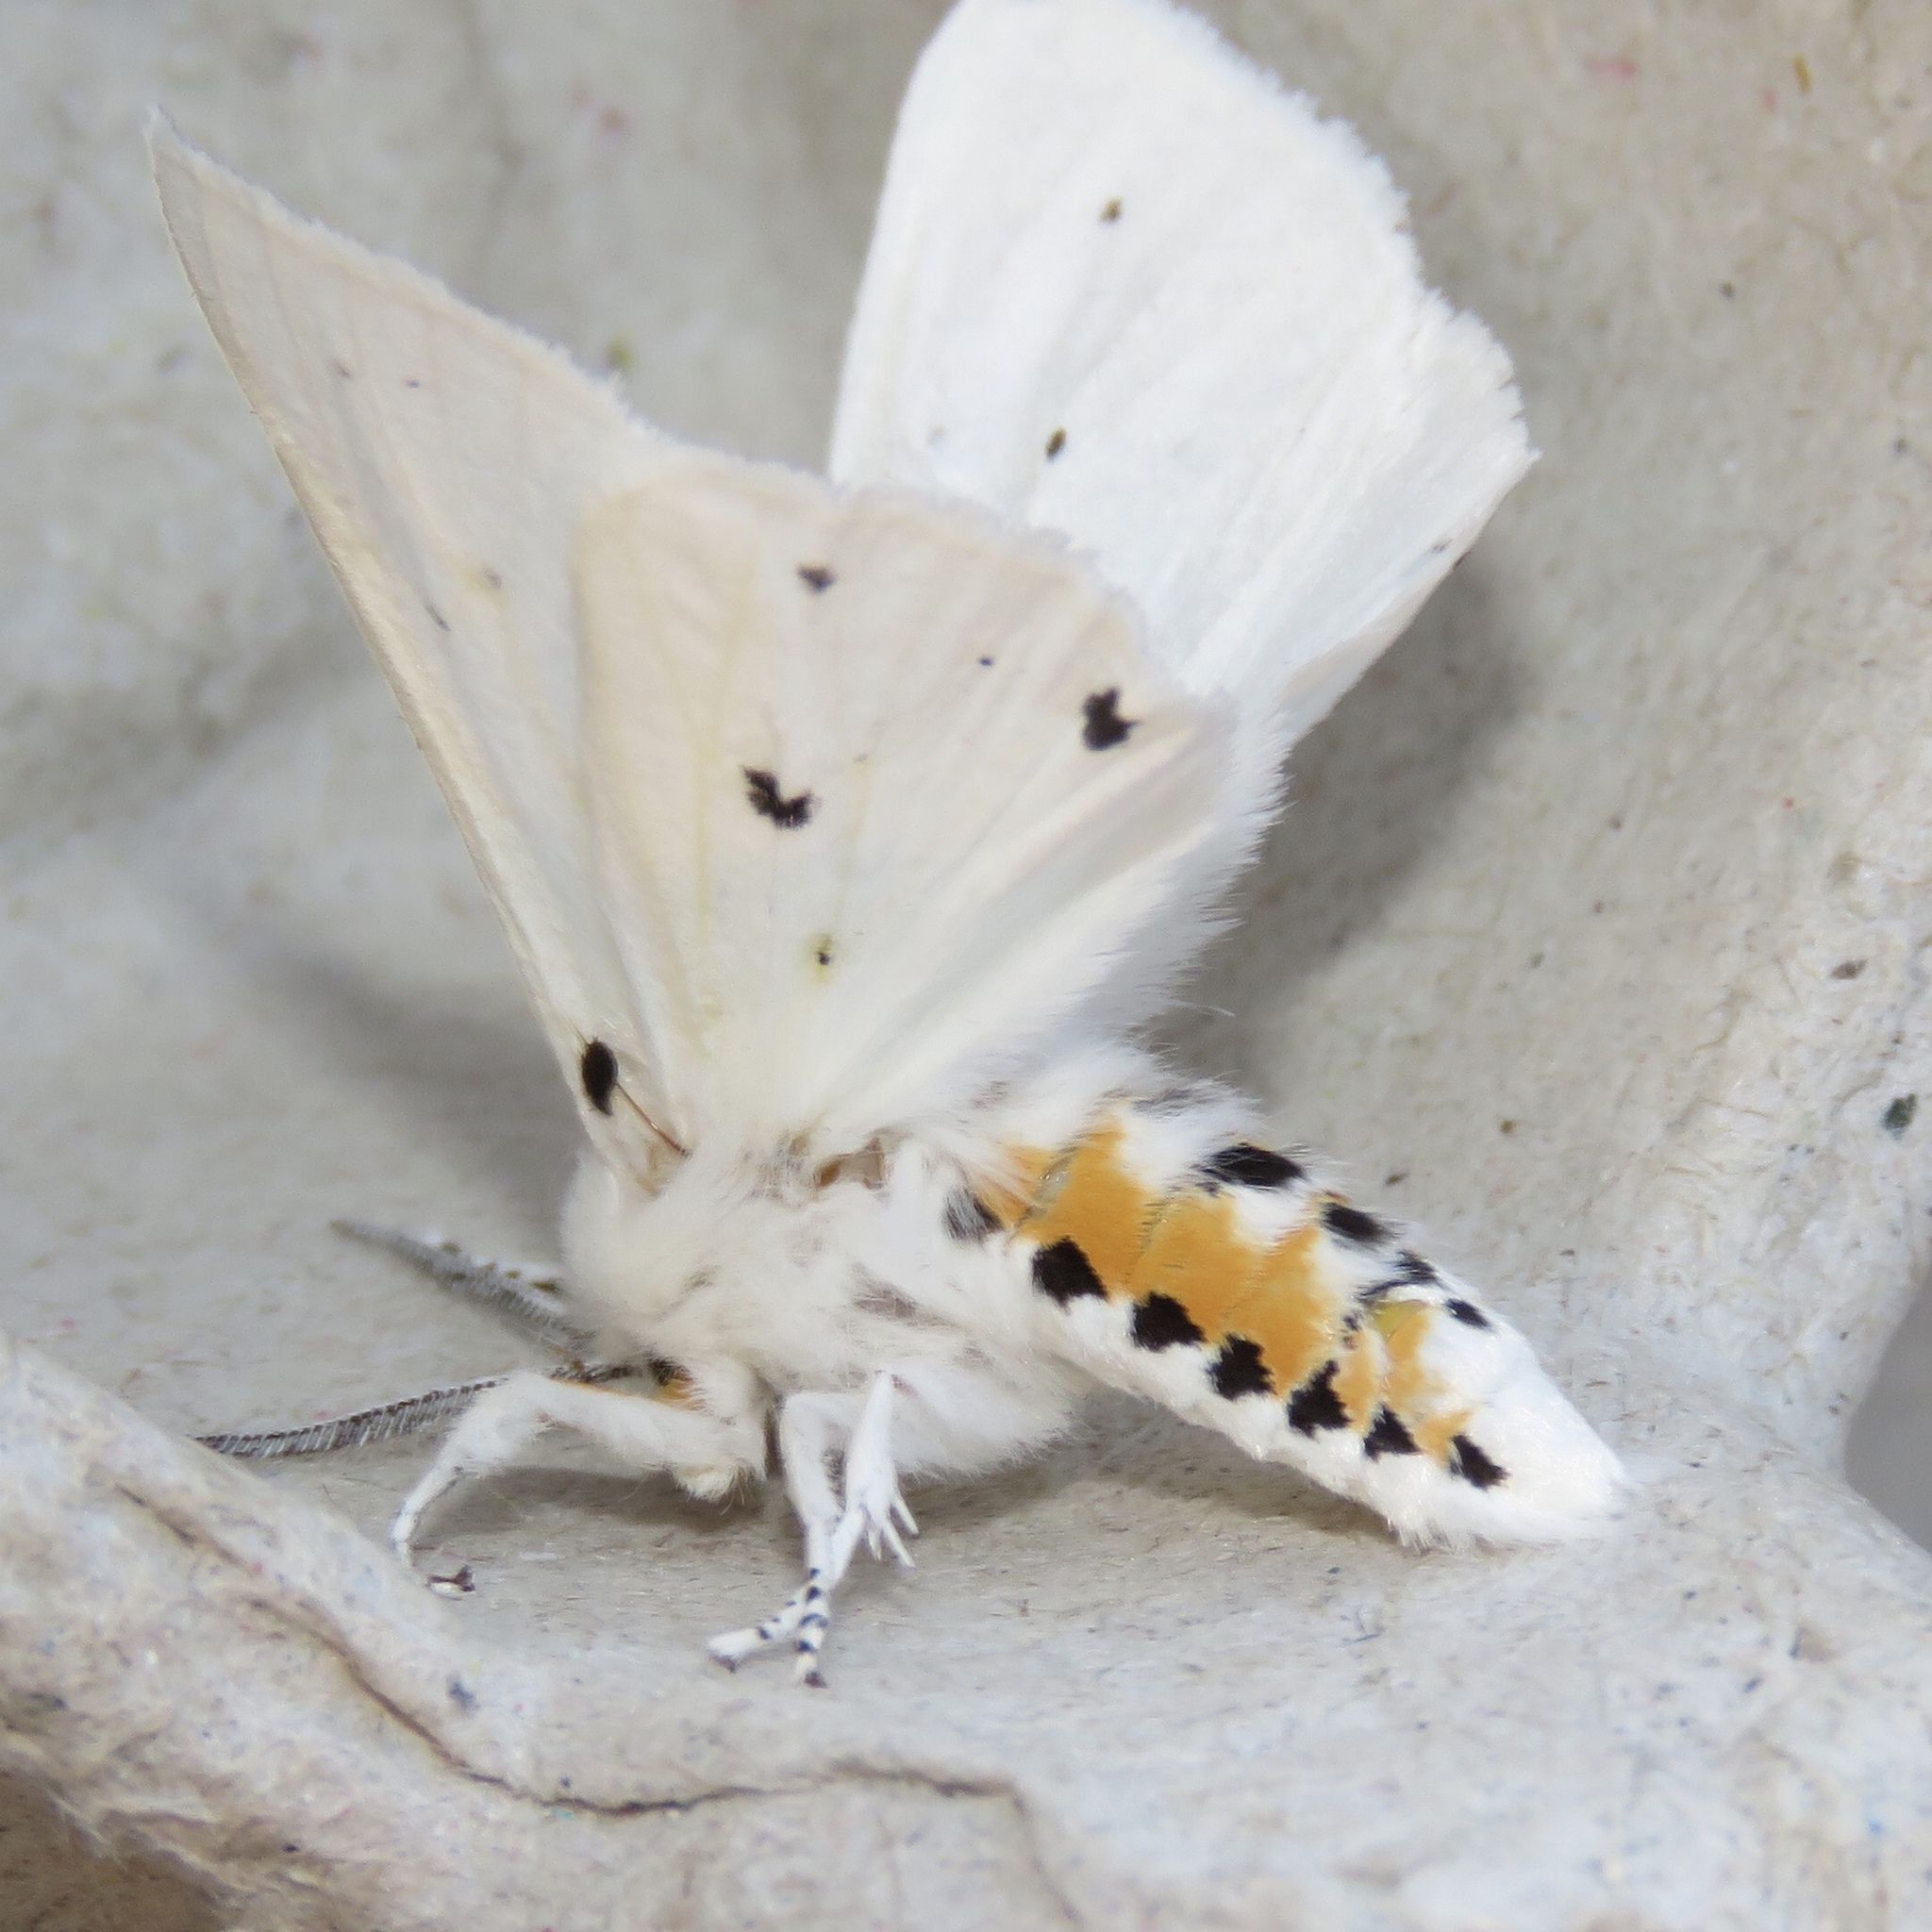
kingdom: Animalia
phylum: Arthropoda
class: Insecta
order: Lepidoptera
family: Erebidae
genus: Spilosoma
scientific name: Spilosoma virginica
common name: Virginia tiger moth
